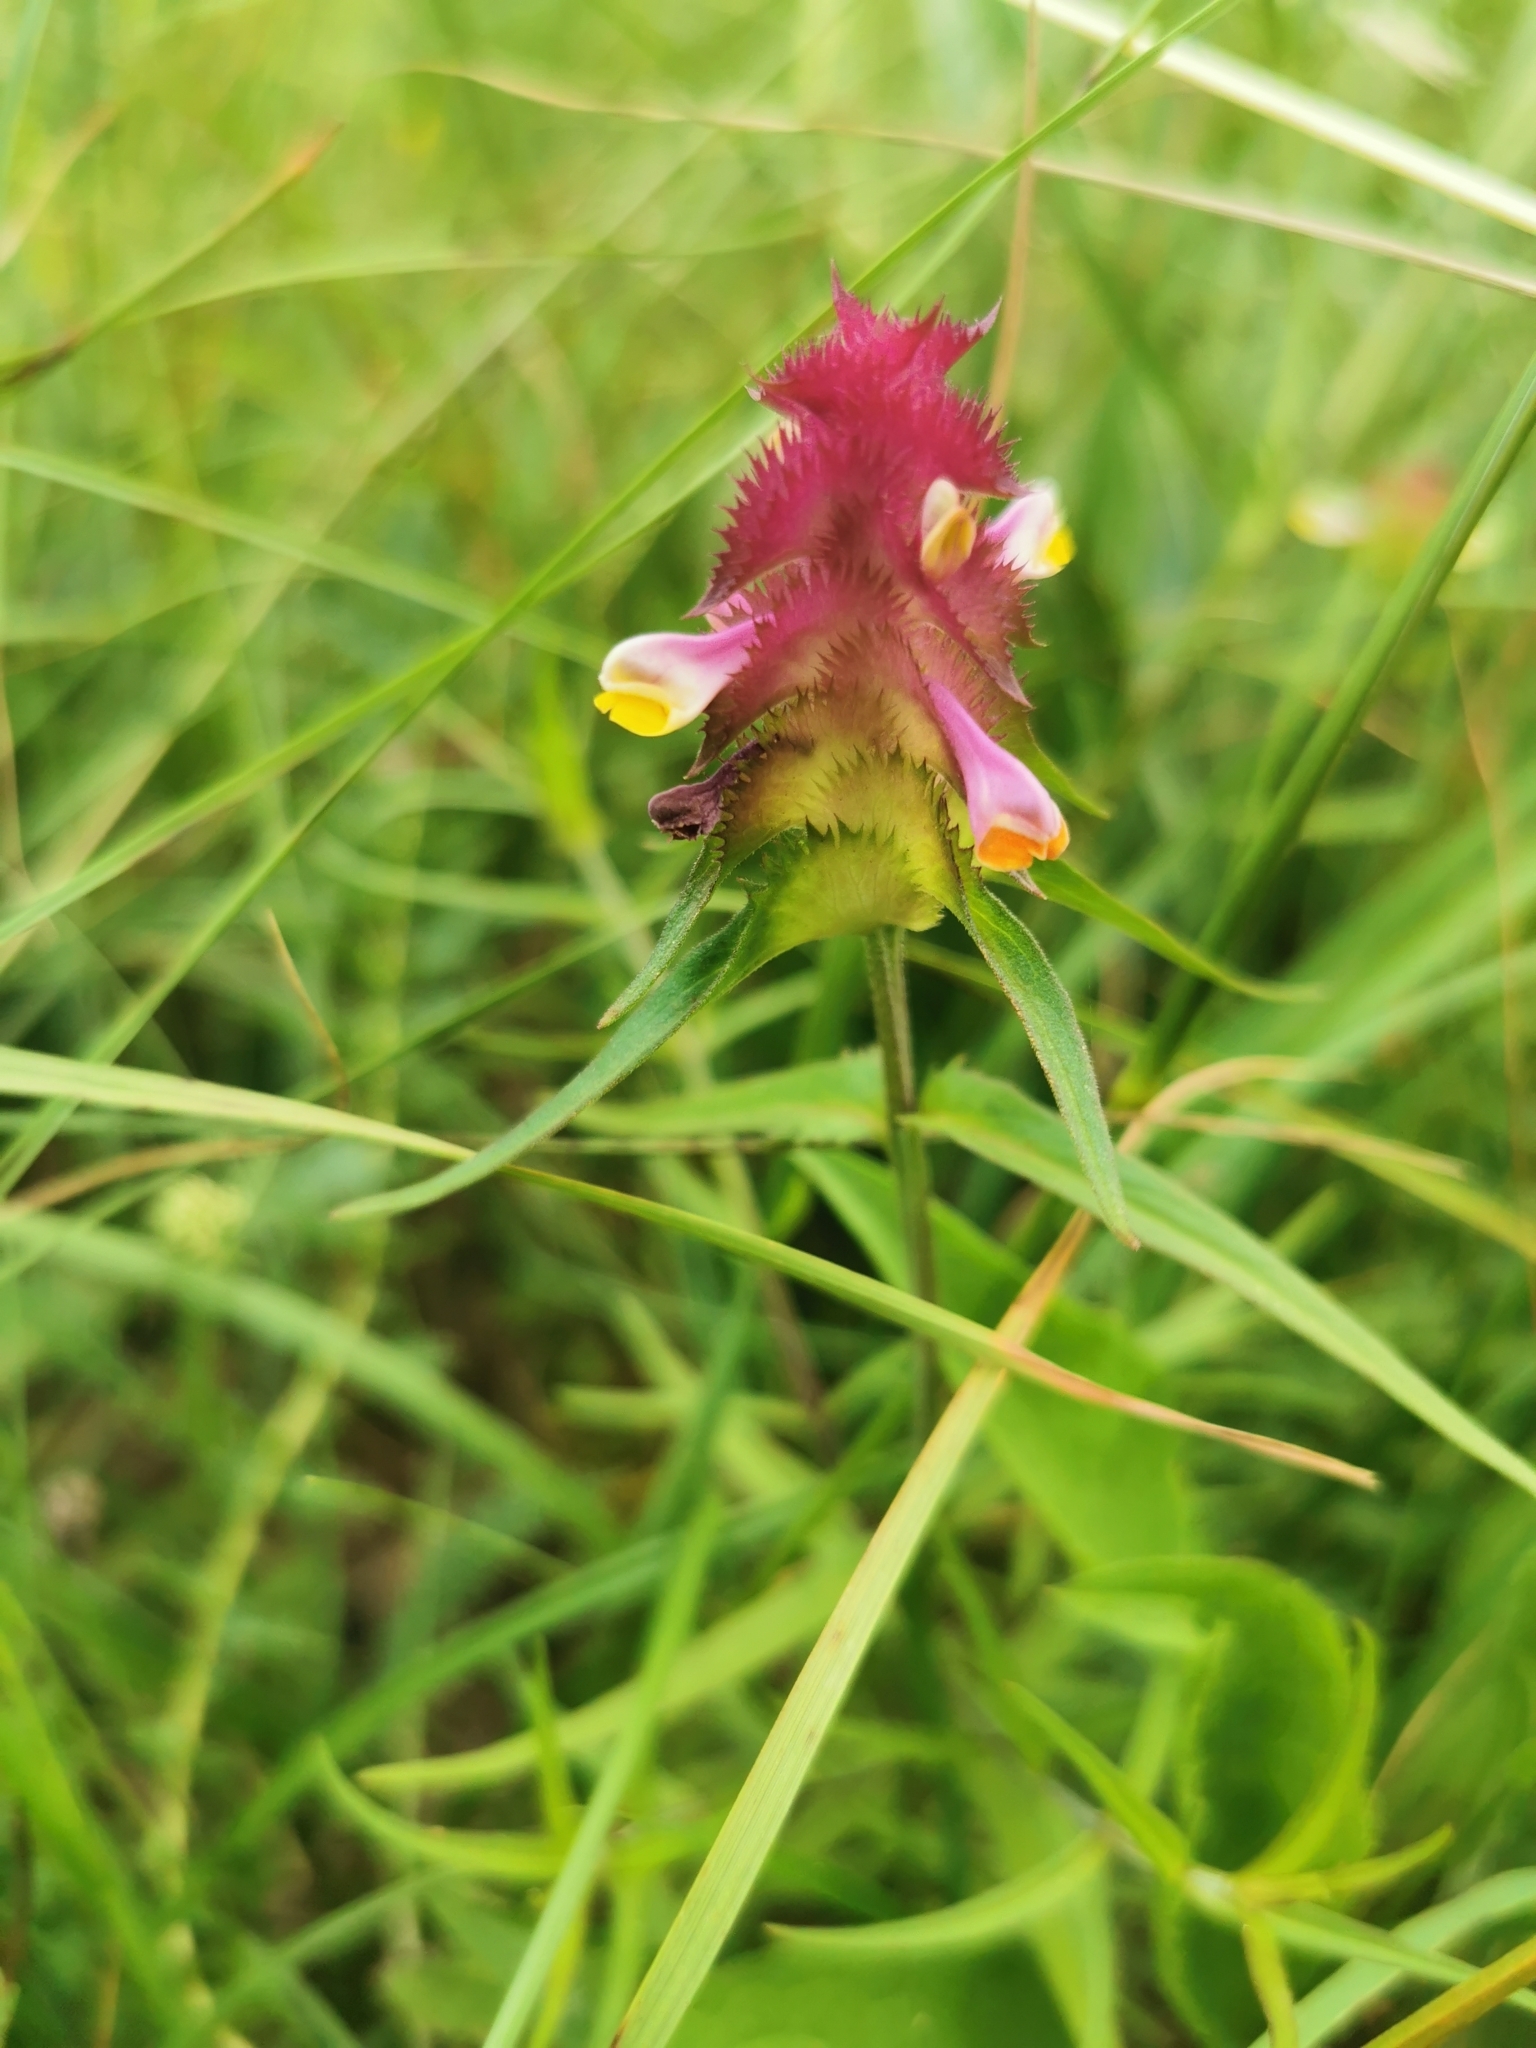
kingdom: Plantae
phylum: Tracheophyta
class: Magnoliopsida
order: Lamiales
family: Orobanchaceae
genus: Melampyrum
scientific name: Melampyrum cristatum
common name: Crested cow-wheat
